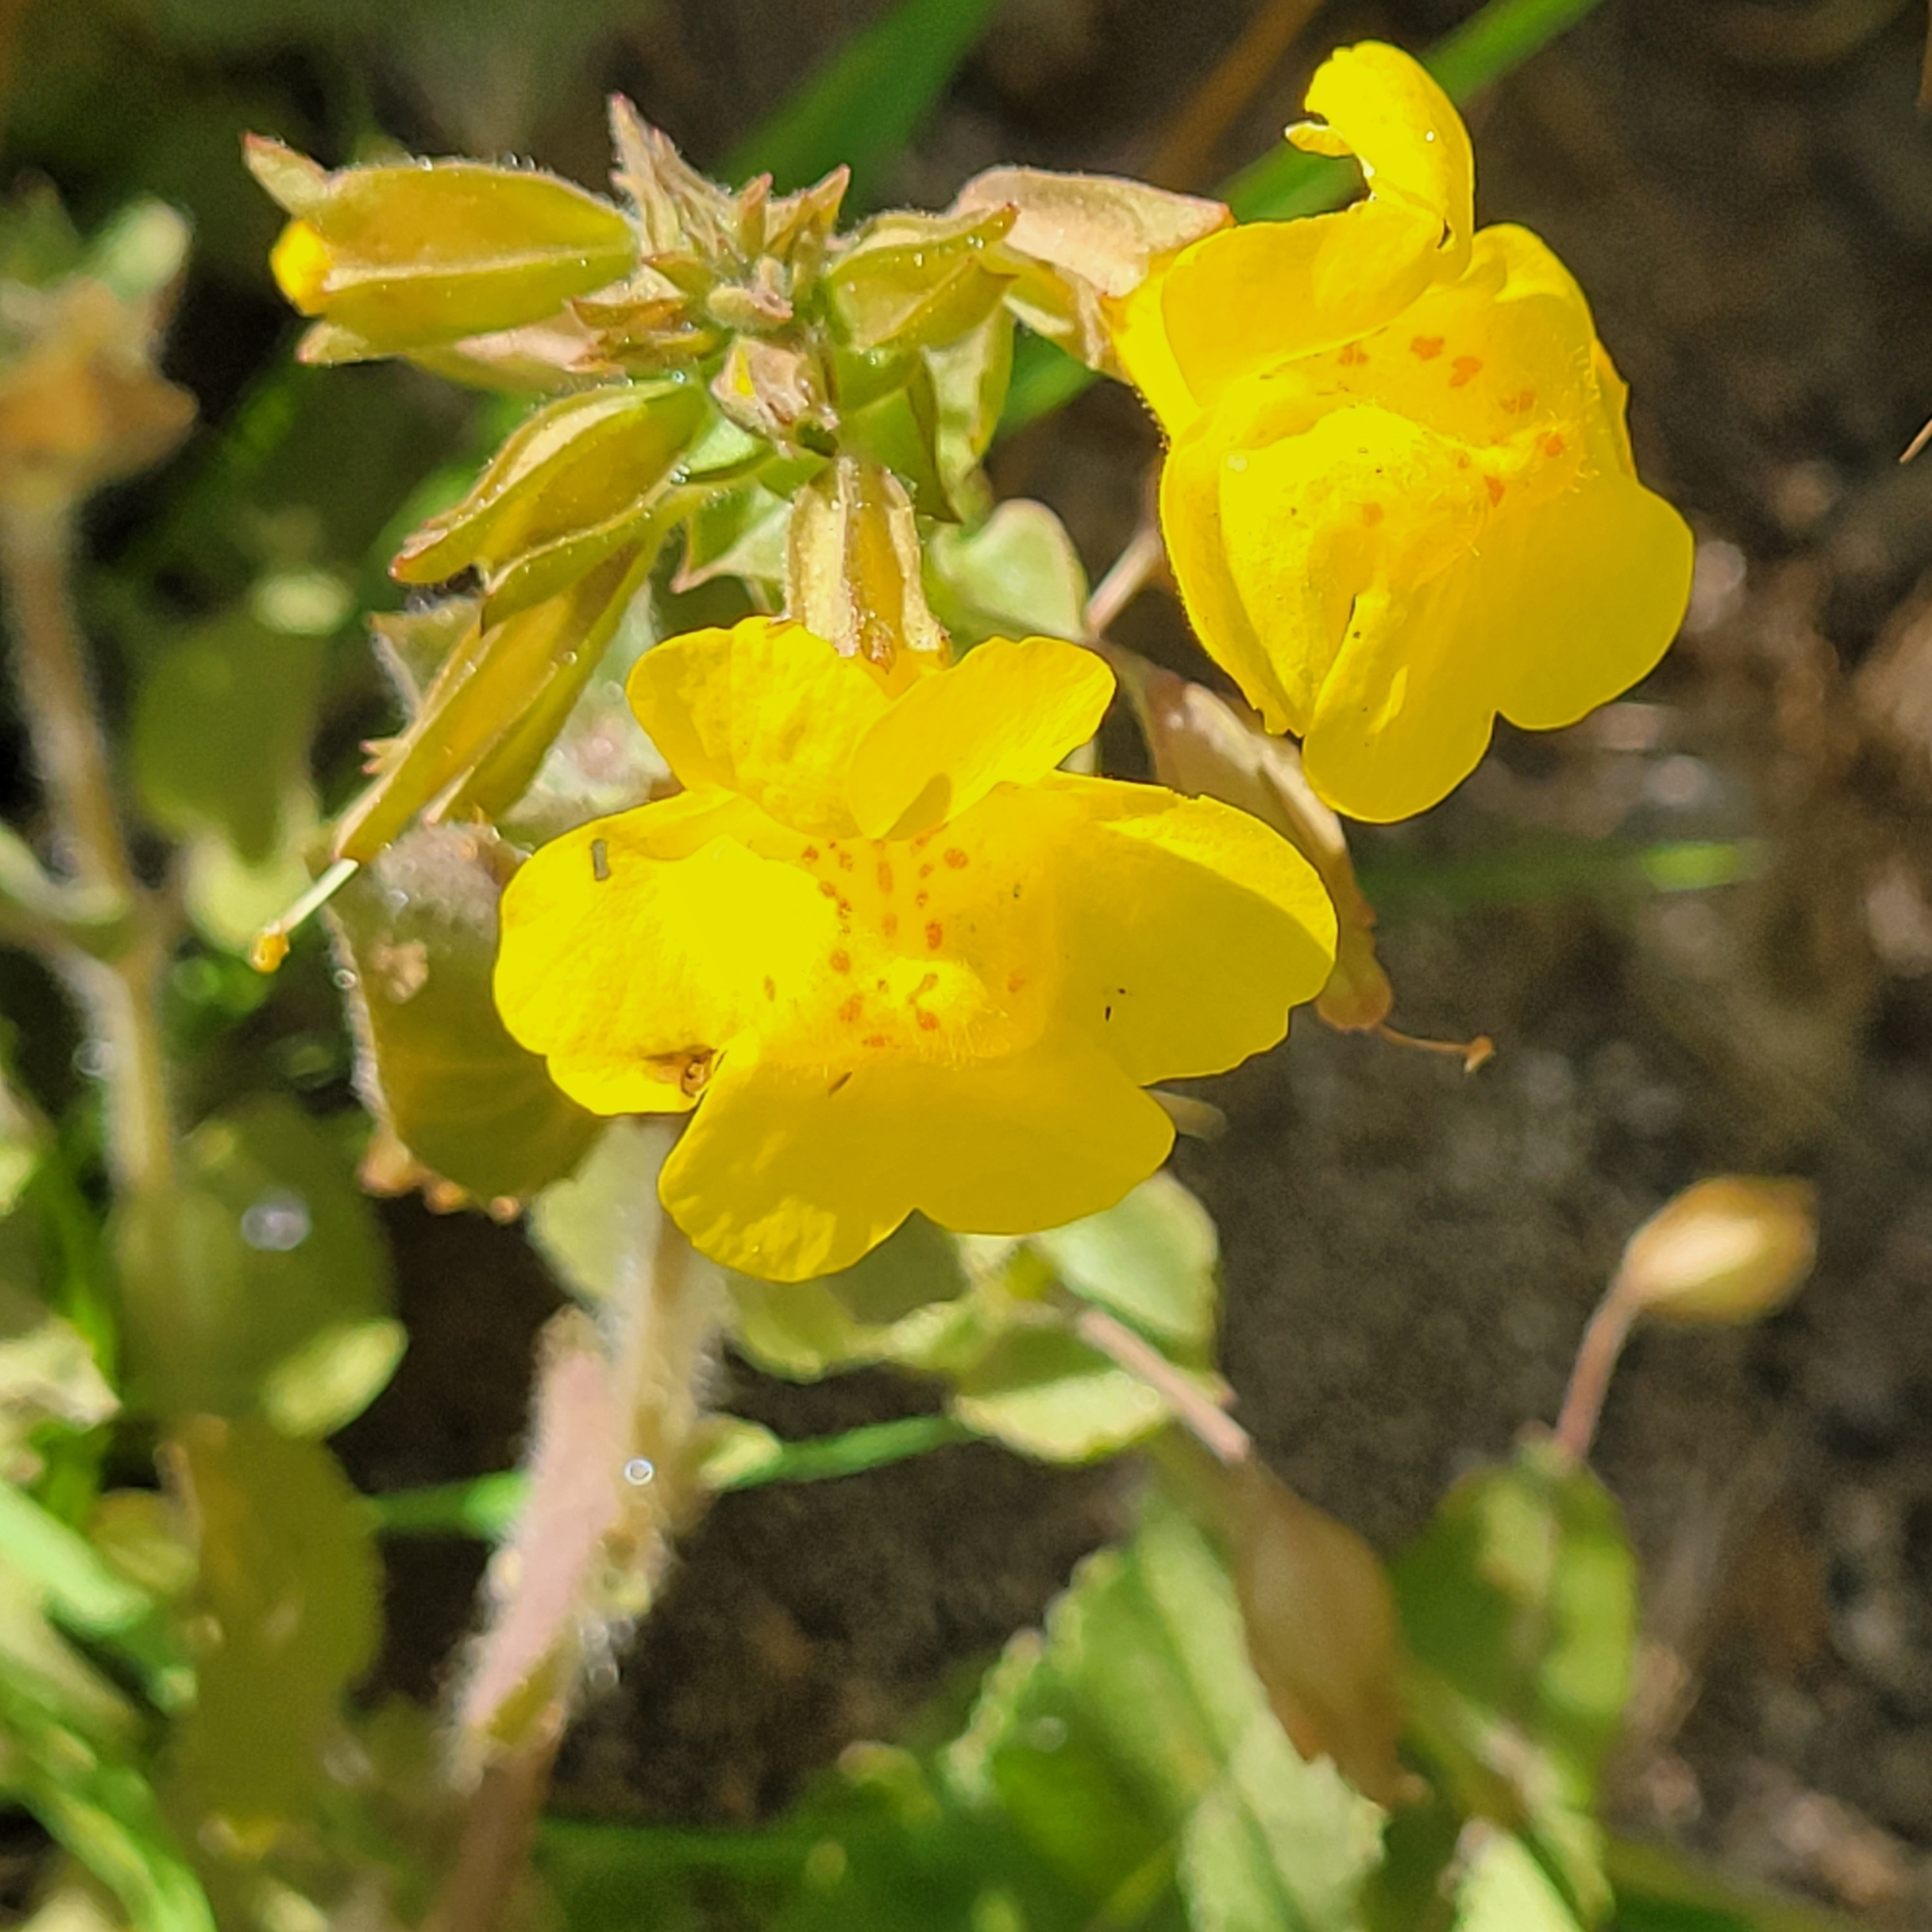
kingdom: Plantae
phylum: Tracheophyta
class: Magnoliopsida
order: Lamiales
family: Phrymaceae
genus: Erythranthe
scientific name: Erythranthe guttata
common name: Monkeyflower
